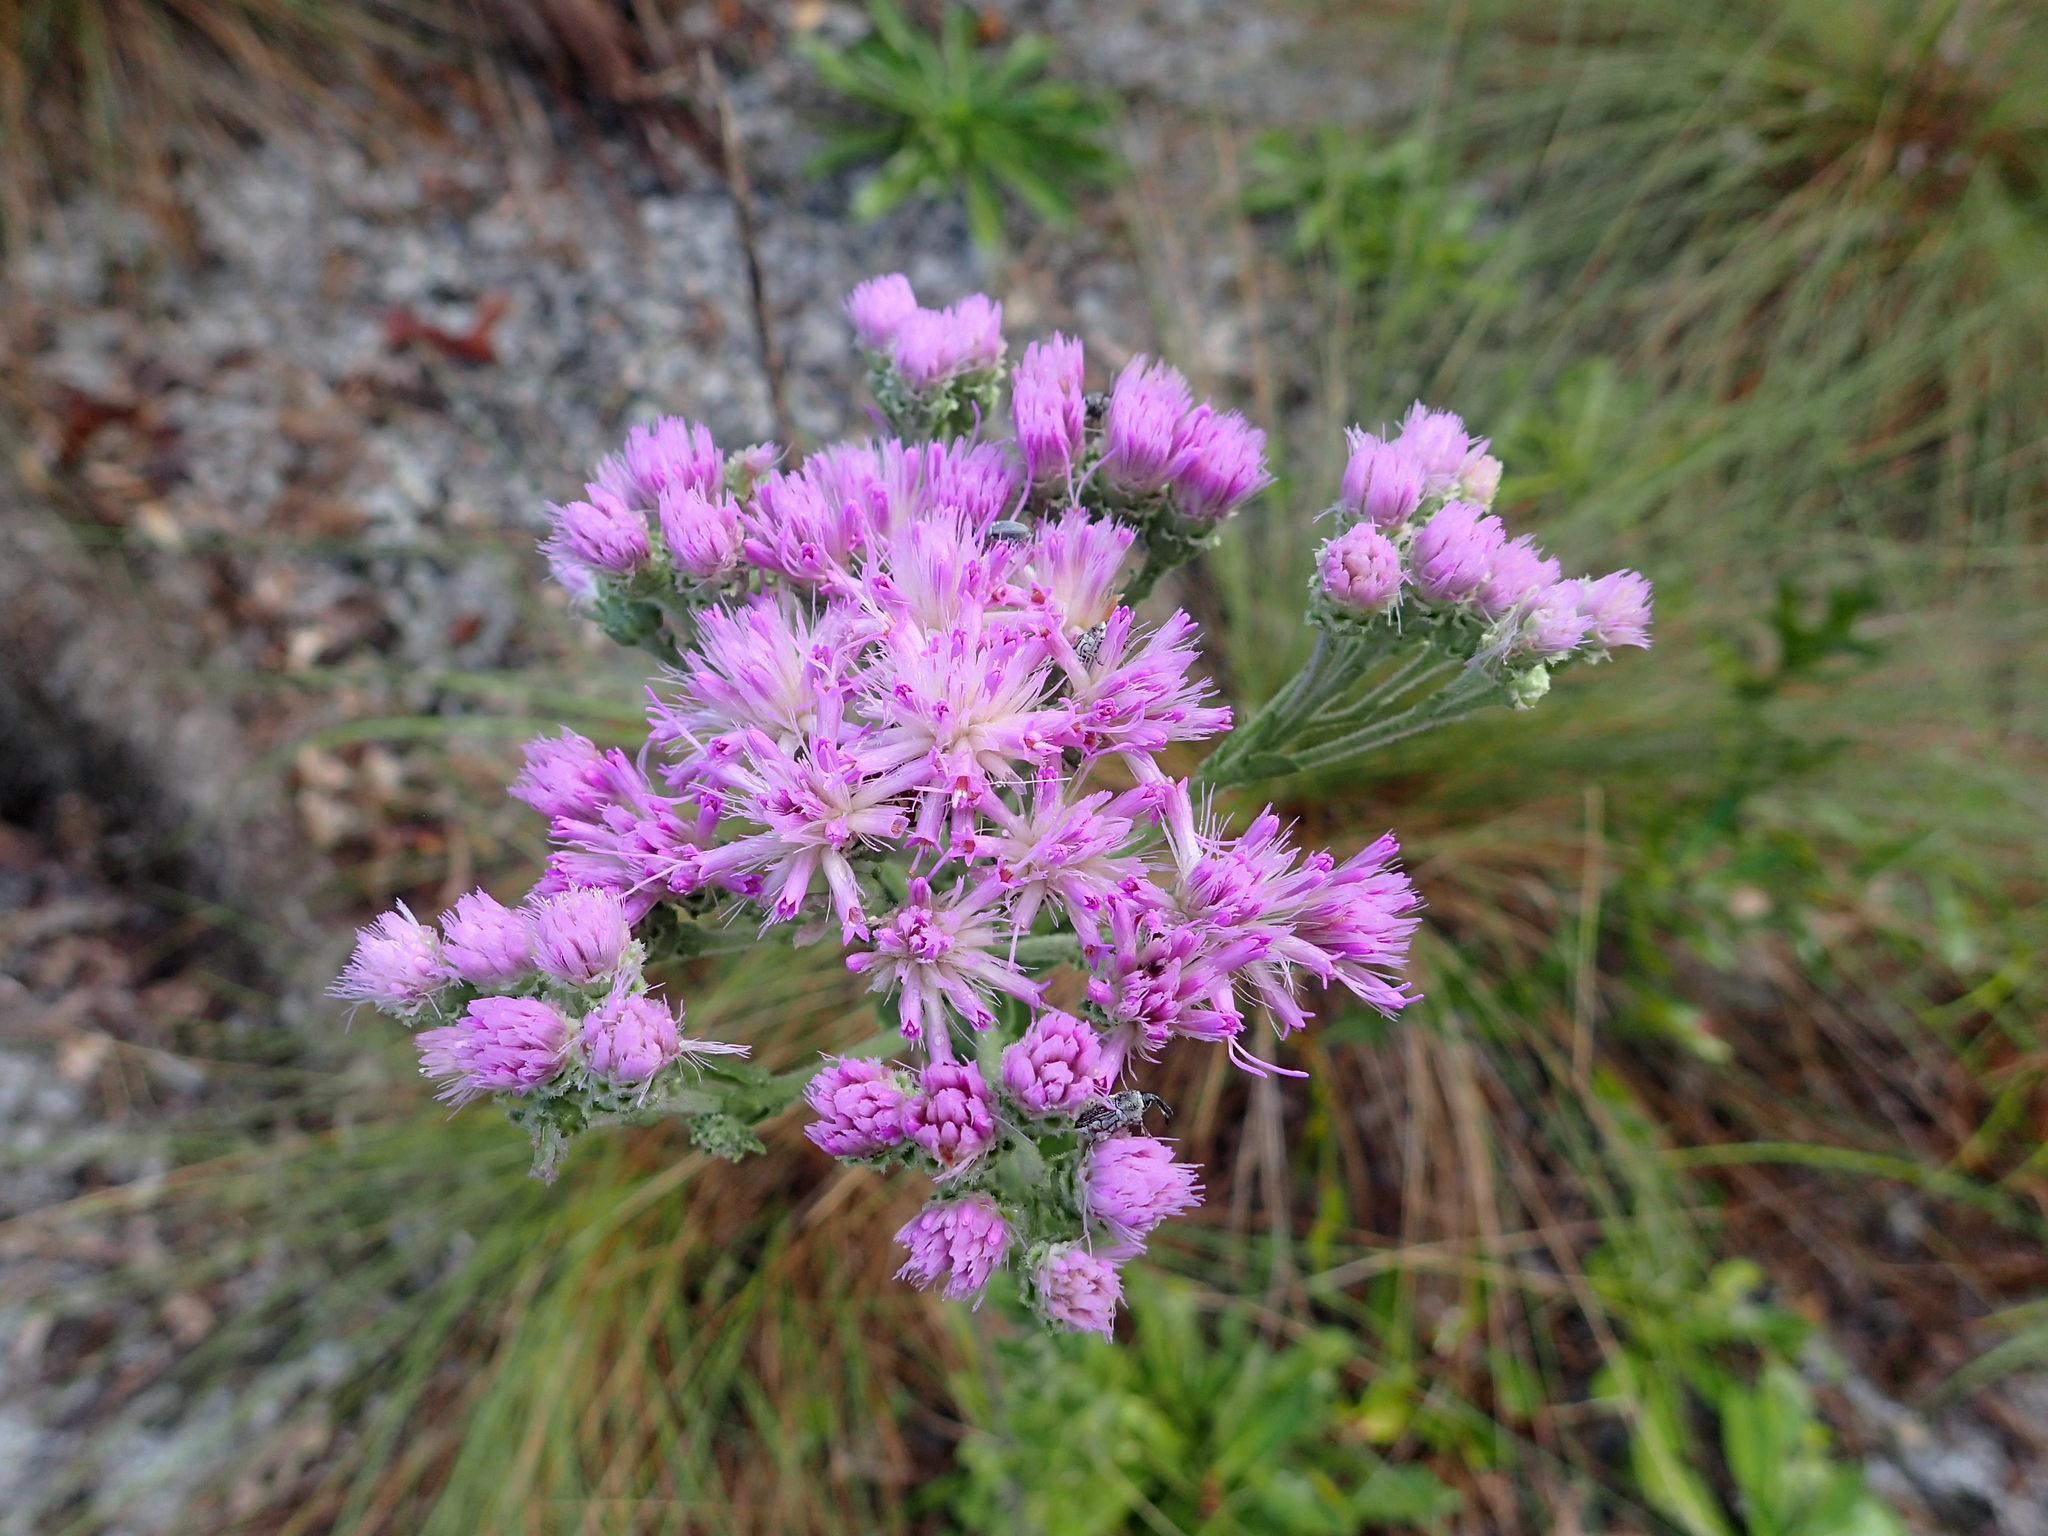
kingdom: Plantae
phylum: Tracheophyta
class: Magnoliopsida
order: Asterales
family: Asteraceae
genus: Carphephorus
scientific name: Carphephorus corymbosus
